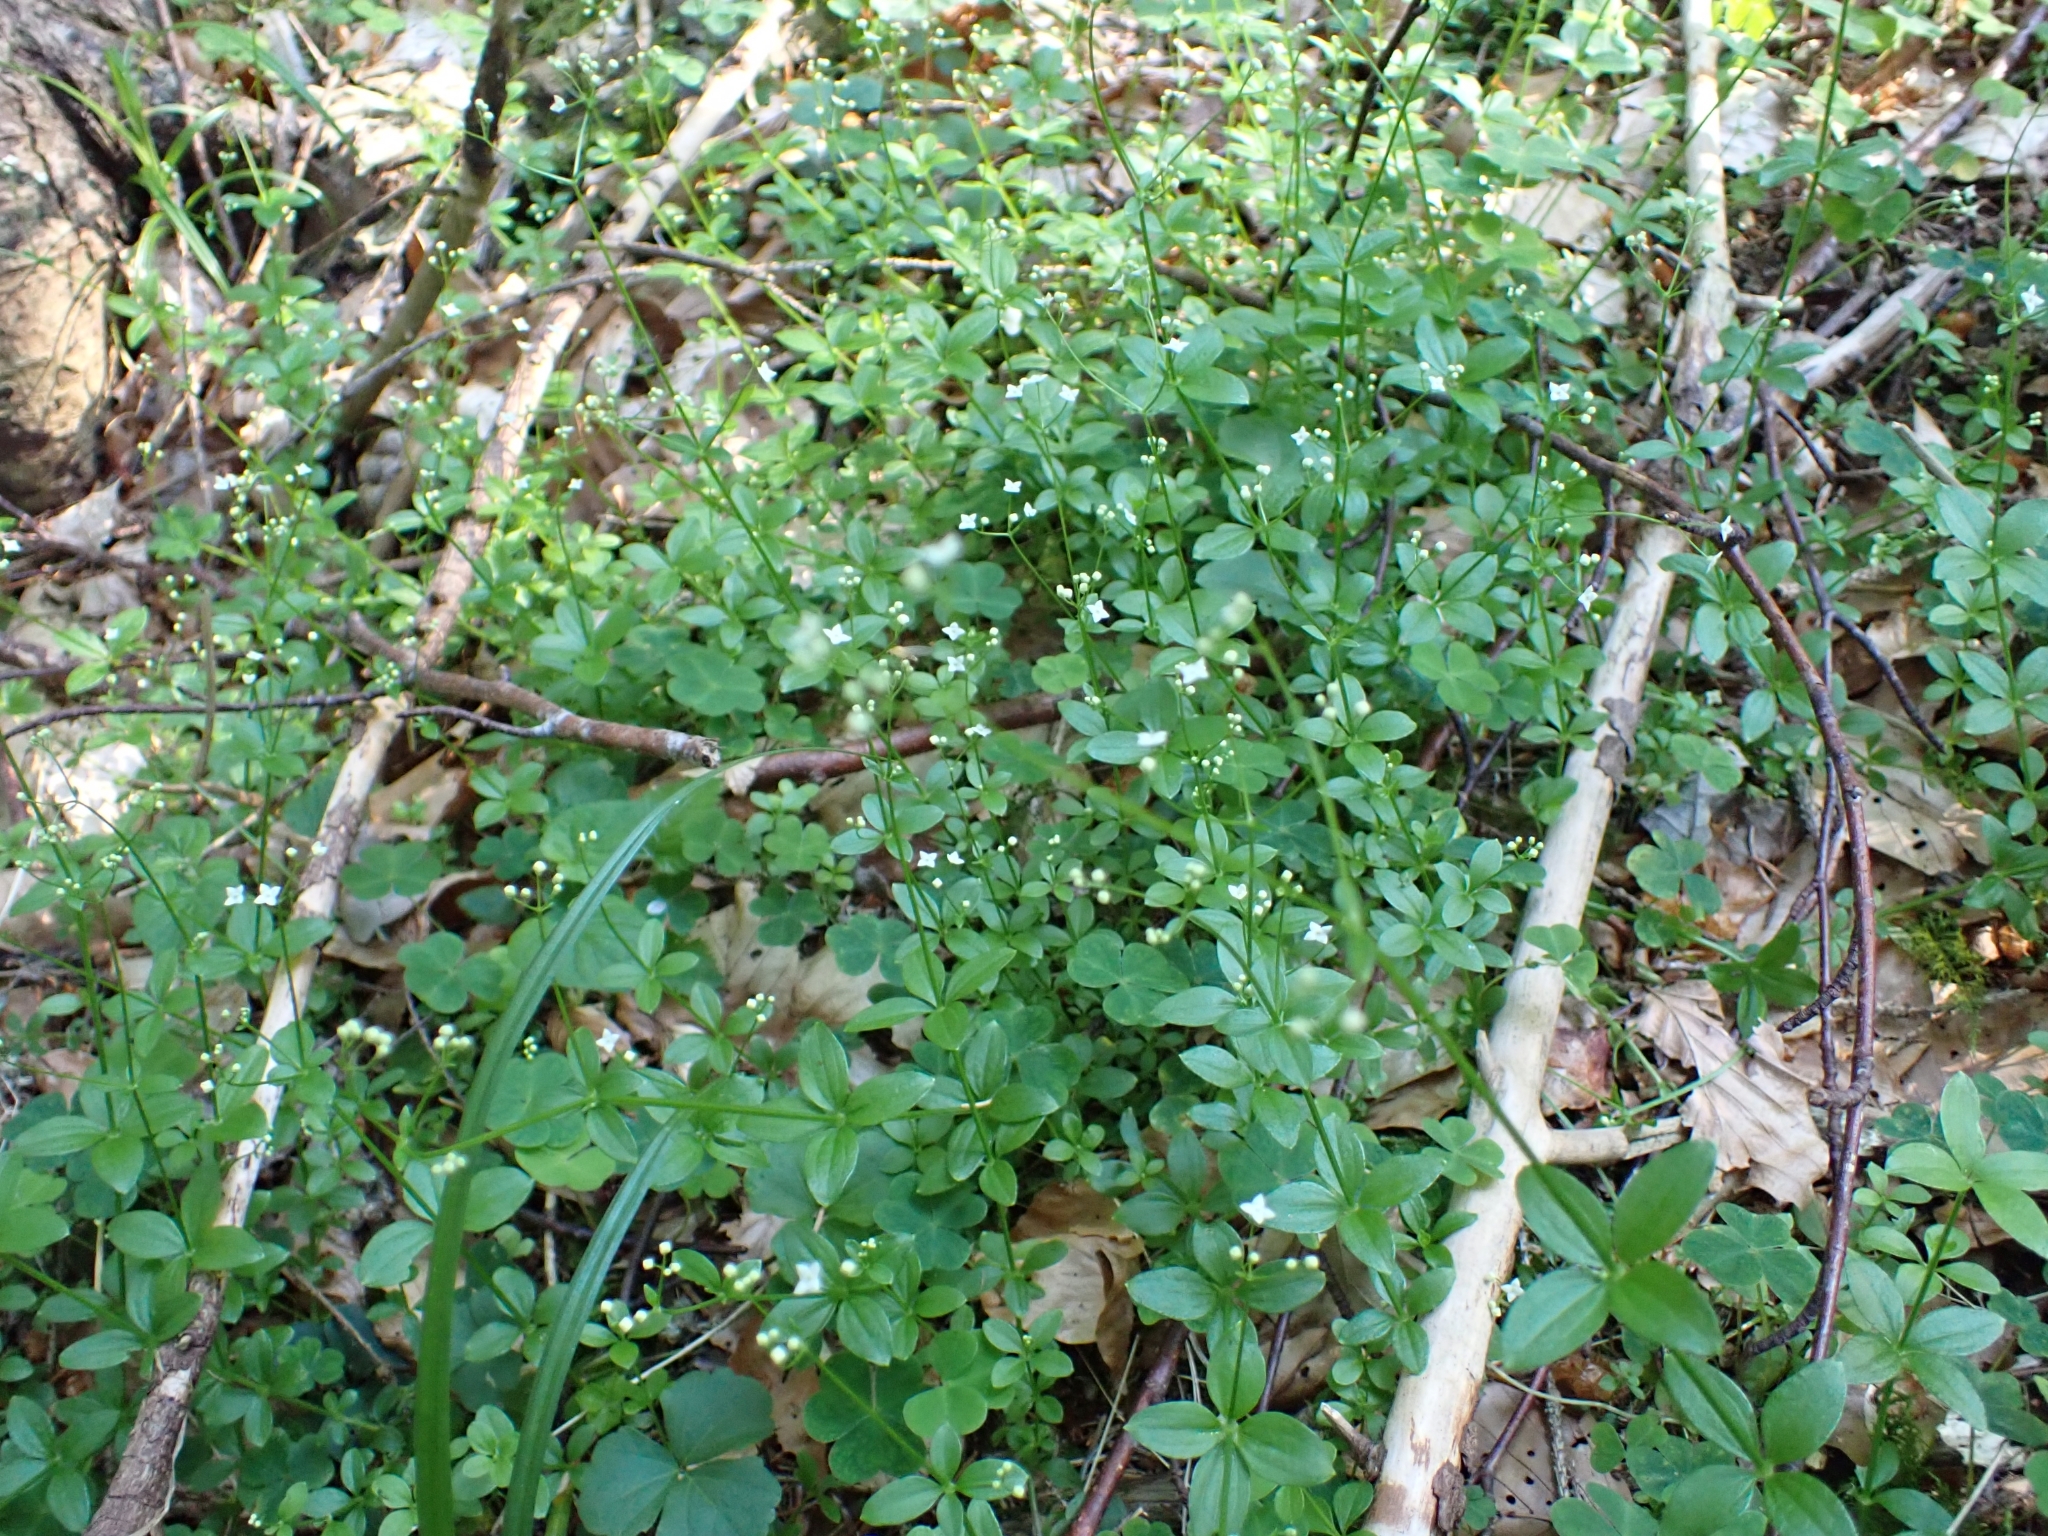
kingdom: Plantae
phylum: Tracheophyta
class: Magnoliopsida
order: Gentianales
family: Rubiaceae
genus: Galium
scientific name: Galium rotundifolium
